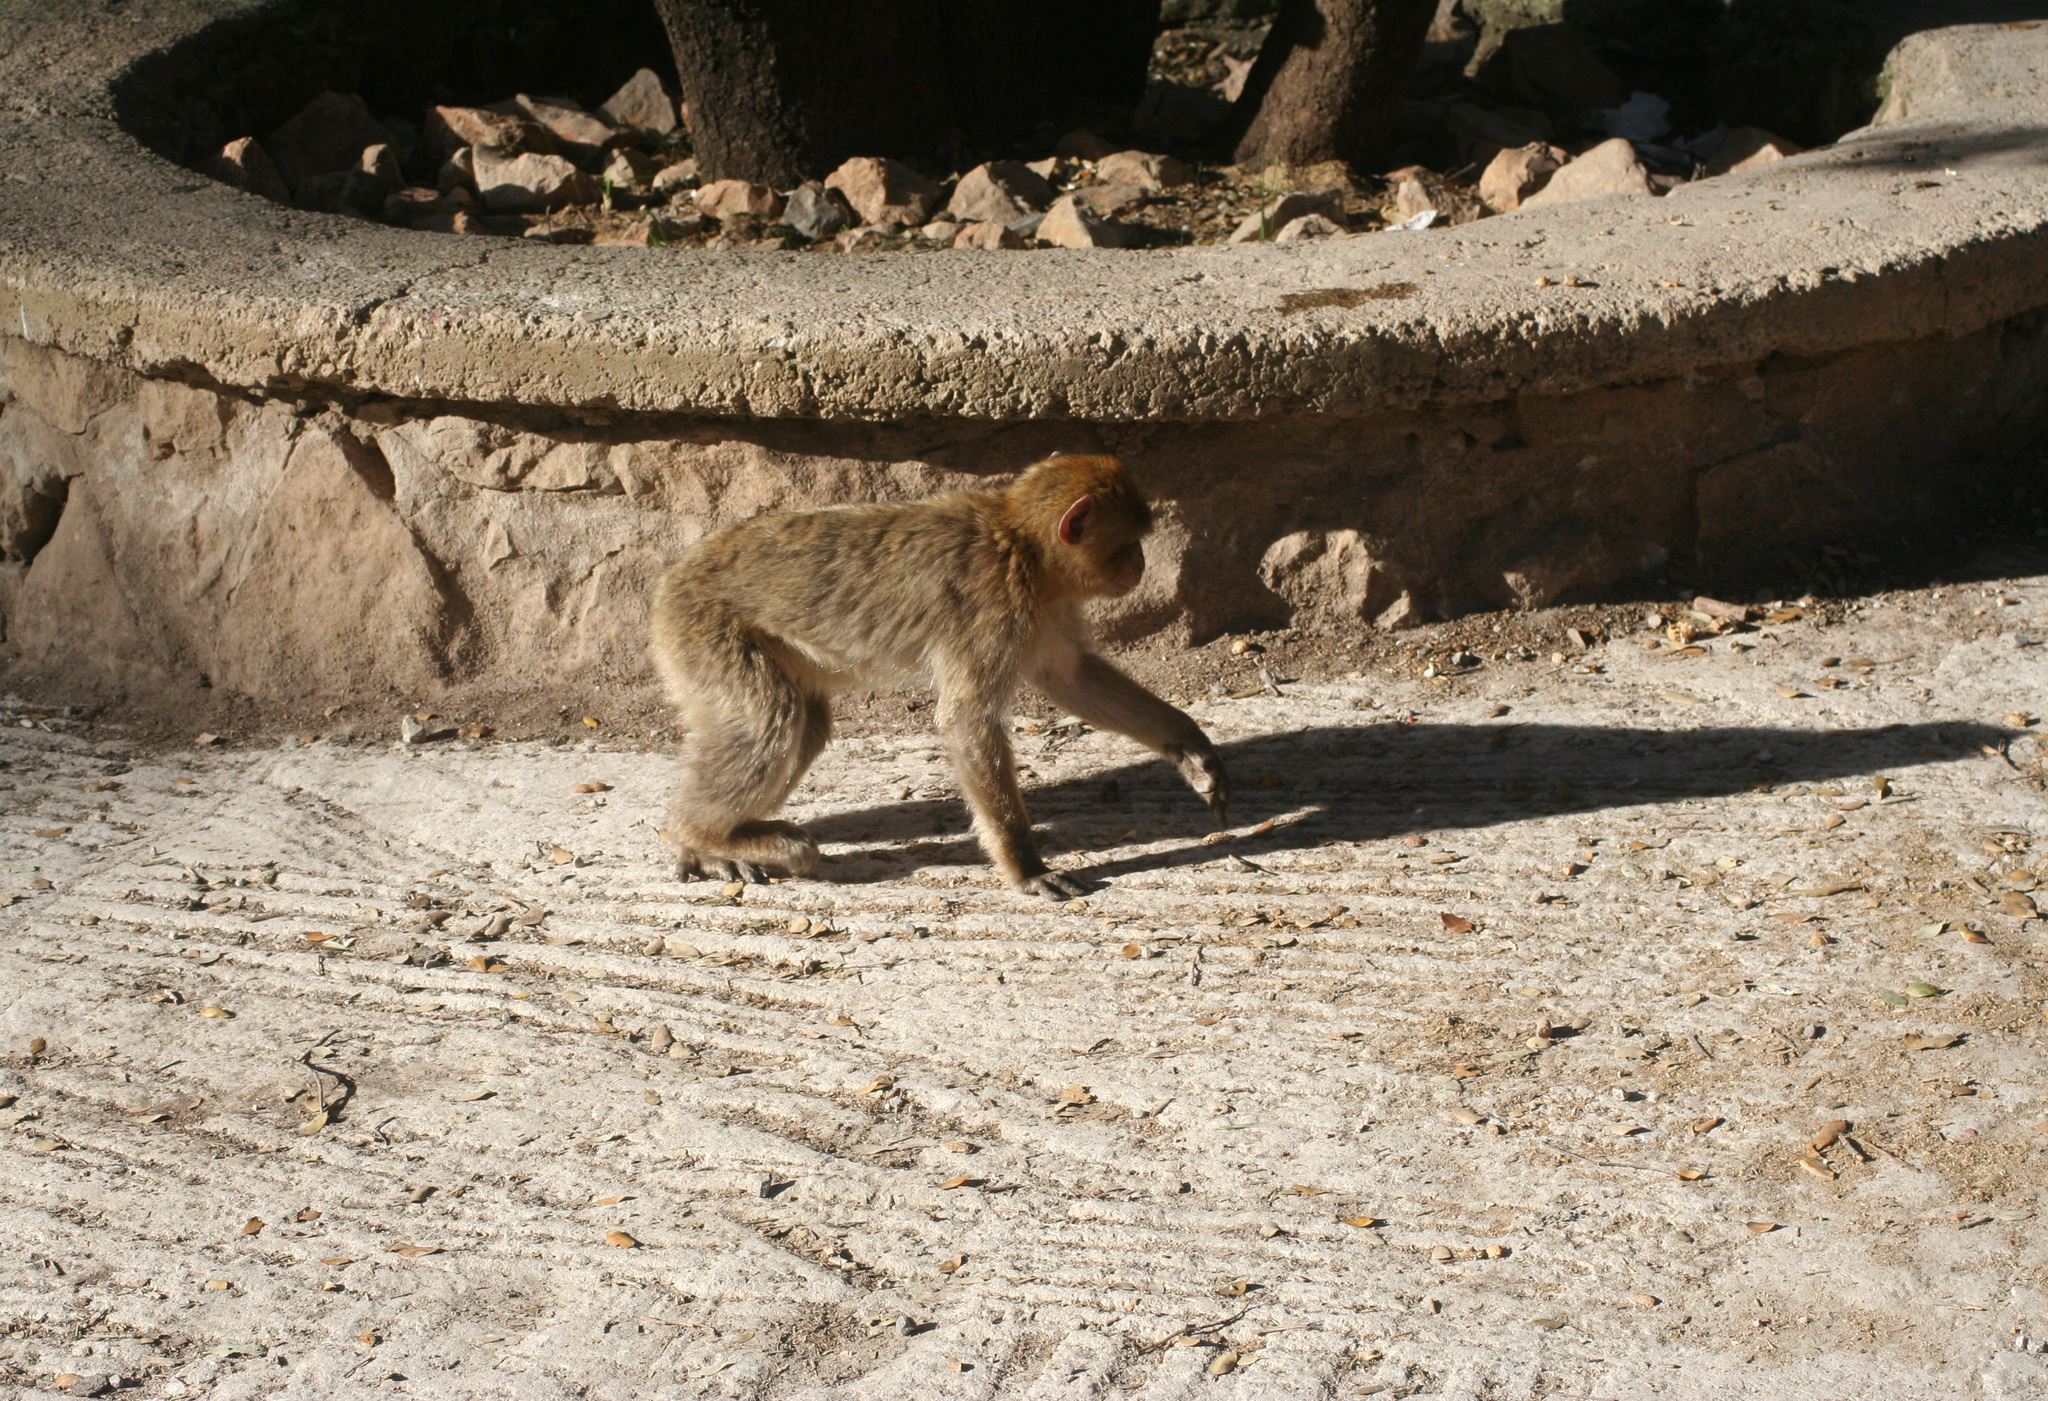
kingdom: Animalia
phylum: Chordata
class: Mammalia
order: Primates
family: Cercopithecidae
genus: Macaca
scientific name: Macaca sylvanus
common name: Barbary macaque
